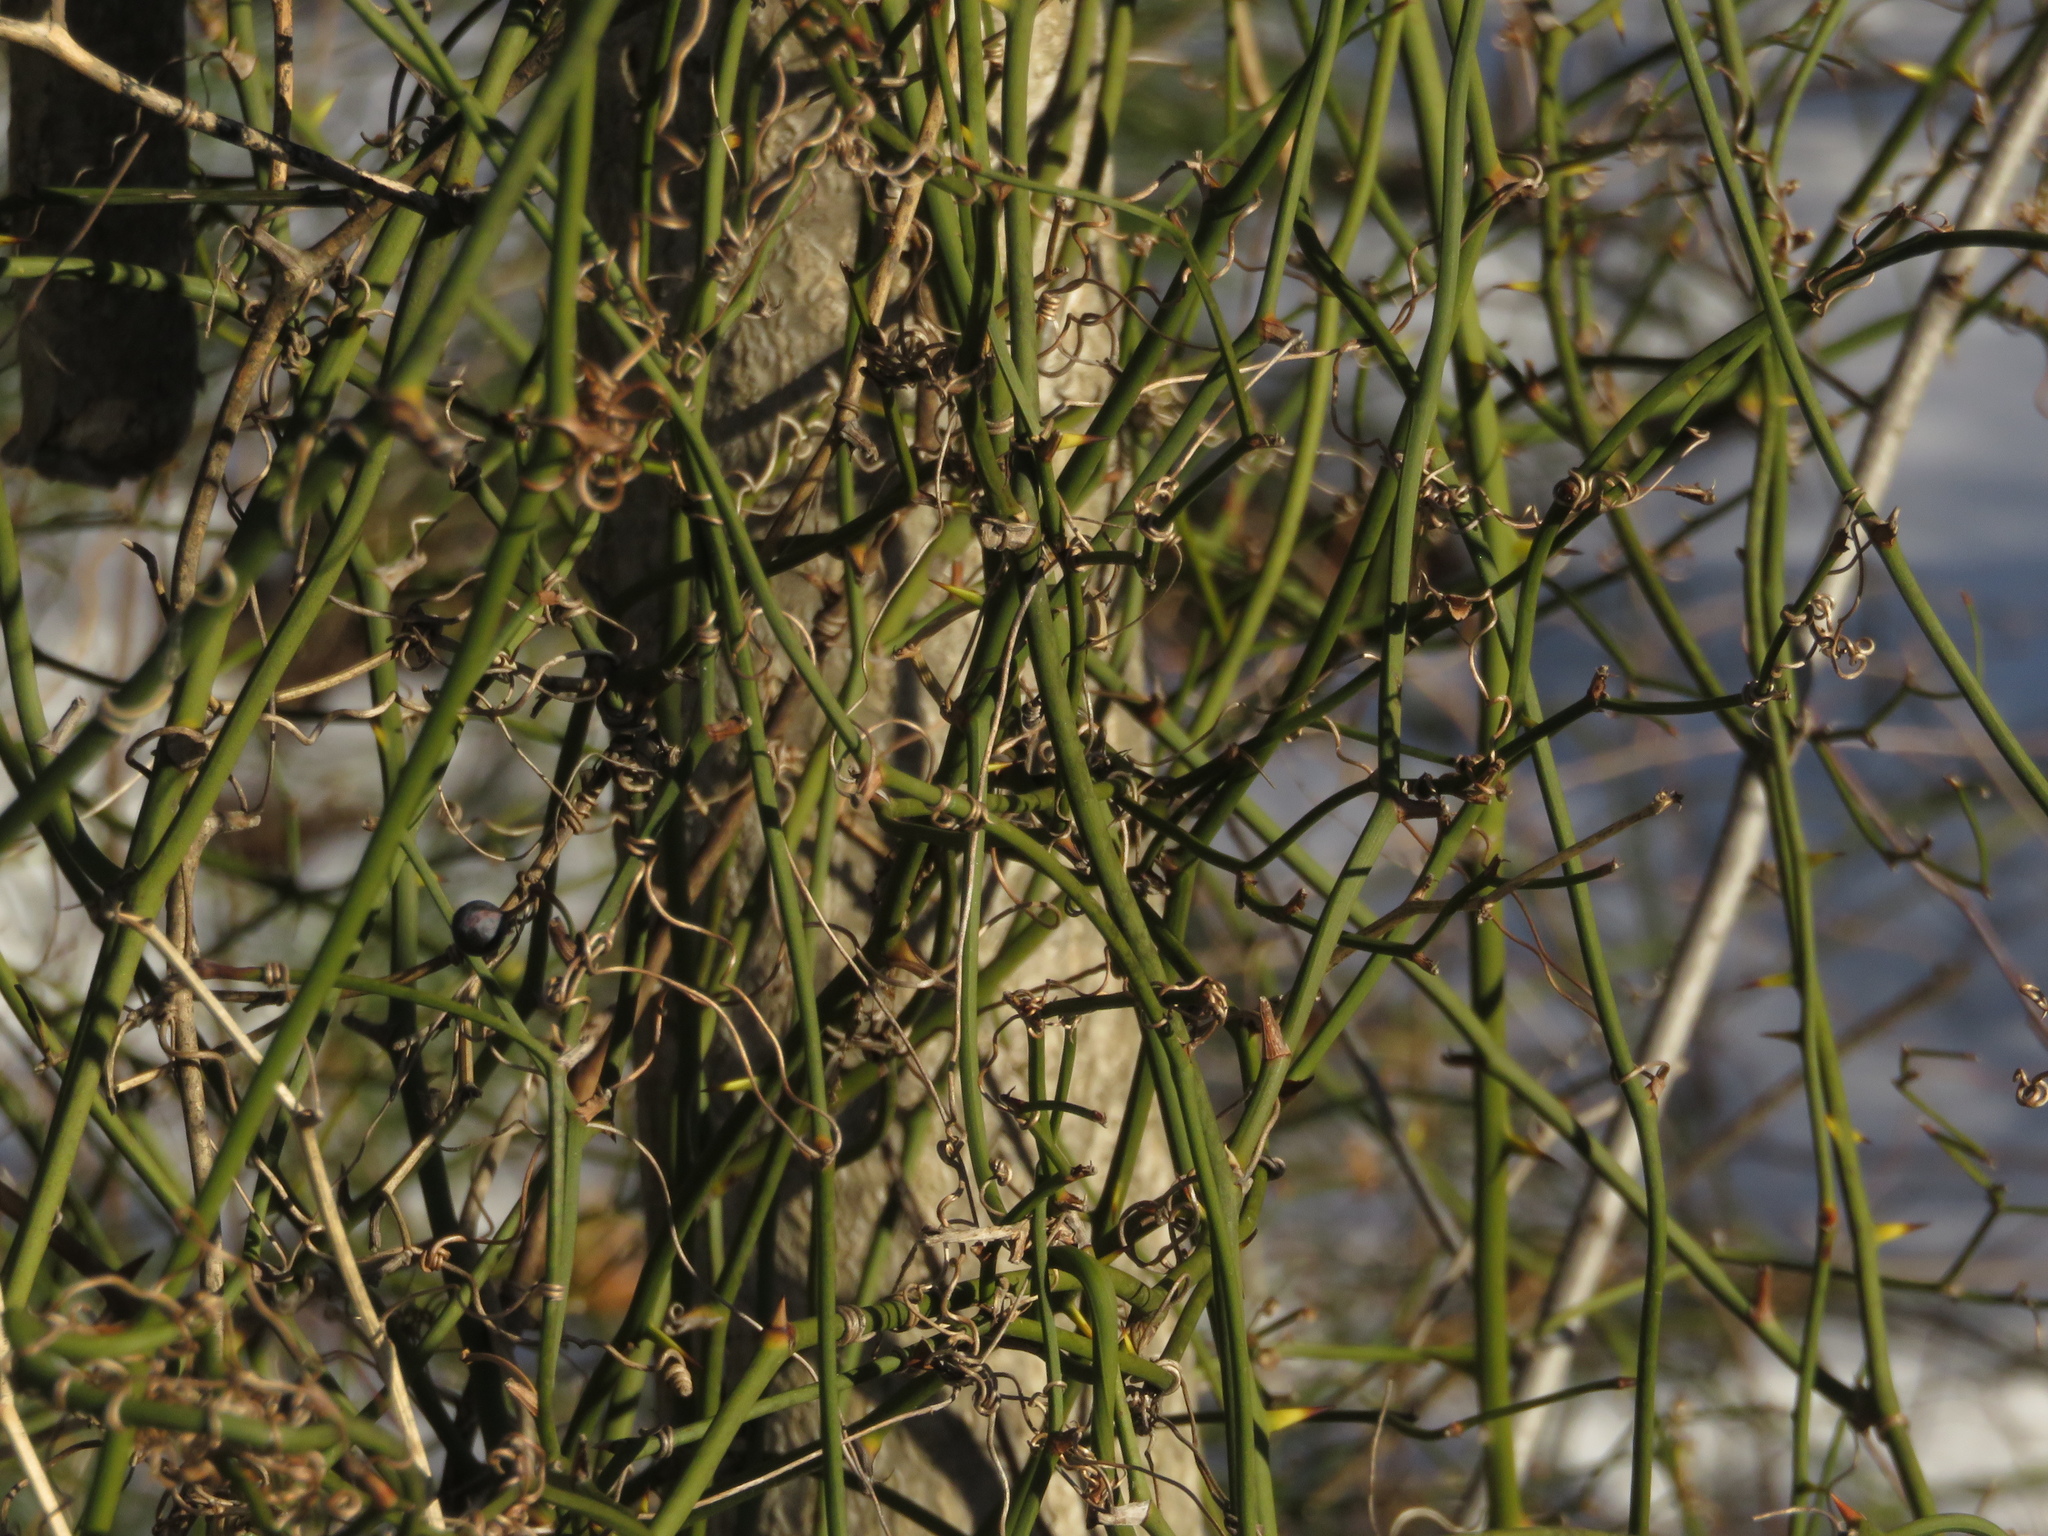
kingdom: Plantae
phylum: Tracheophyta
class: Liliopsida
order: Liliales
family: Smilacaceae
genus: Smilax
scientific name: Smilax rotundifolia
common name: Bullbriar
